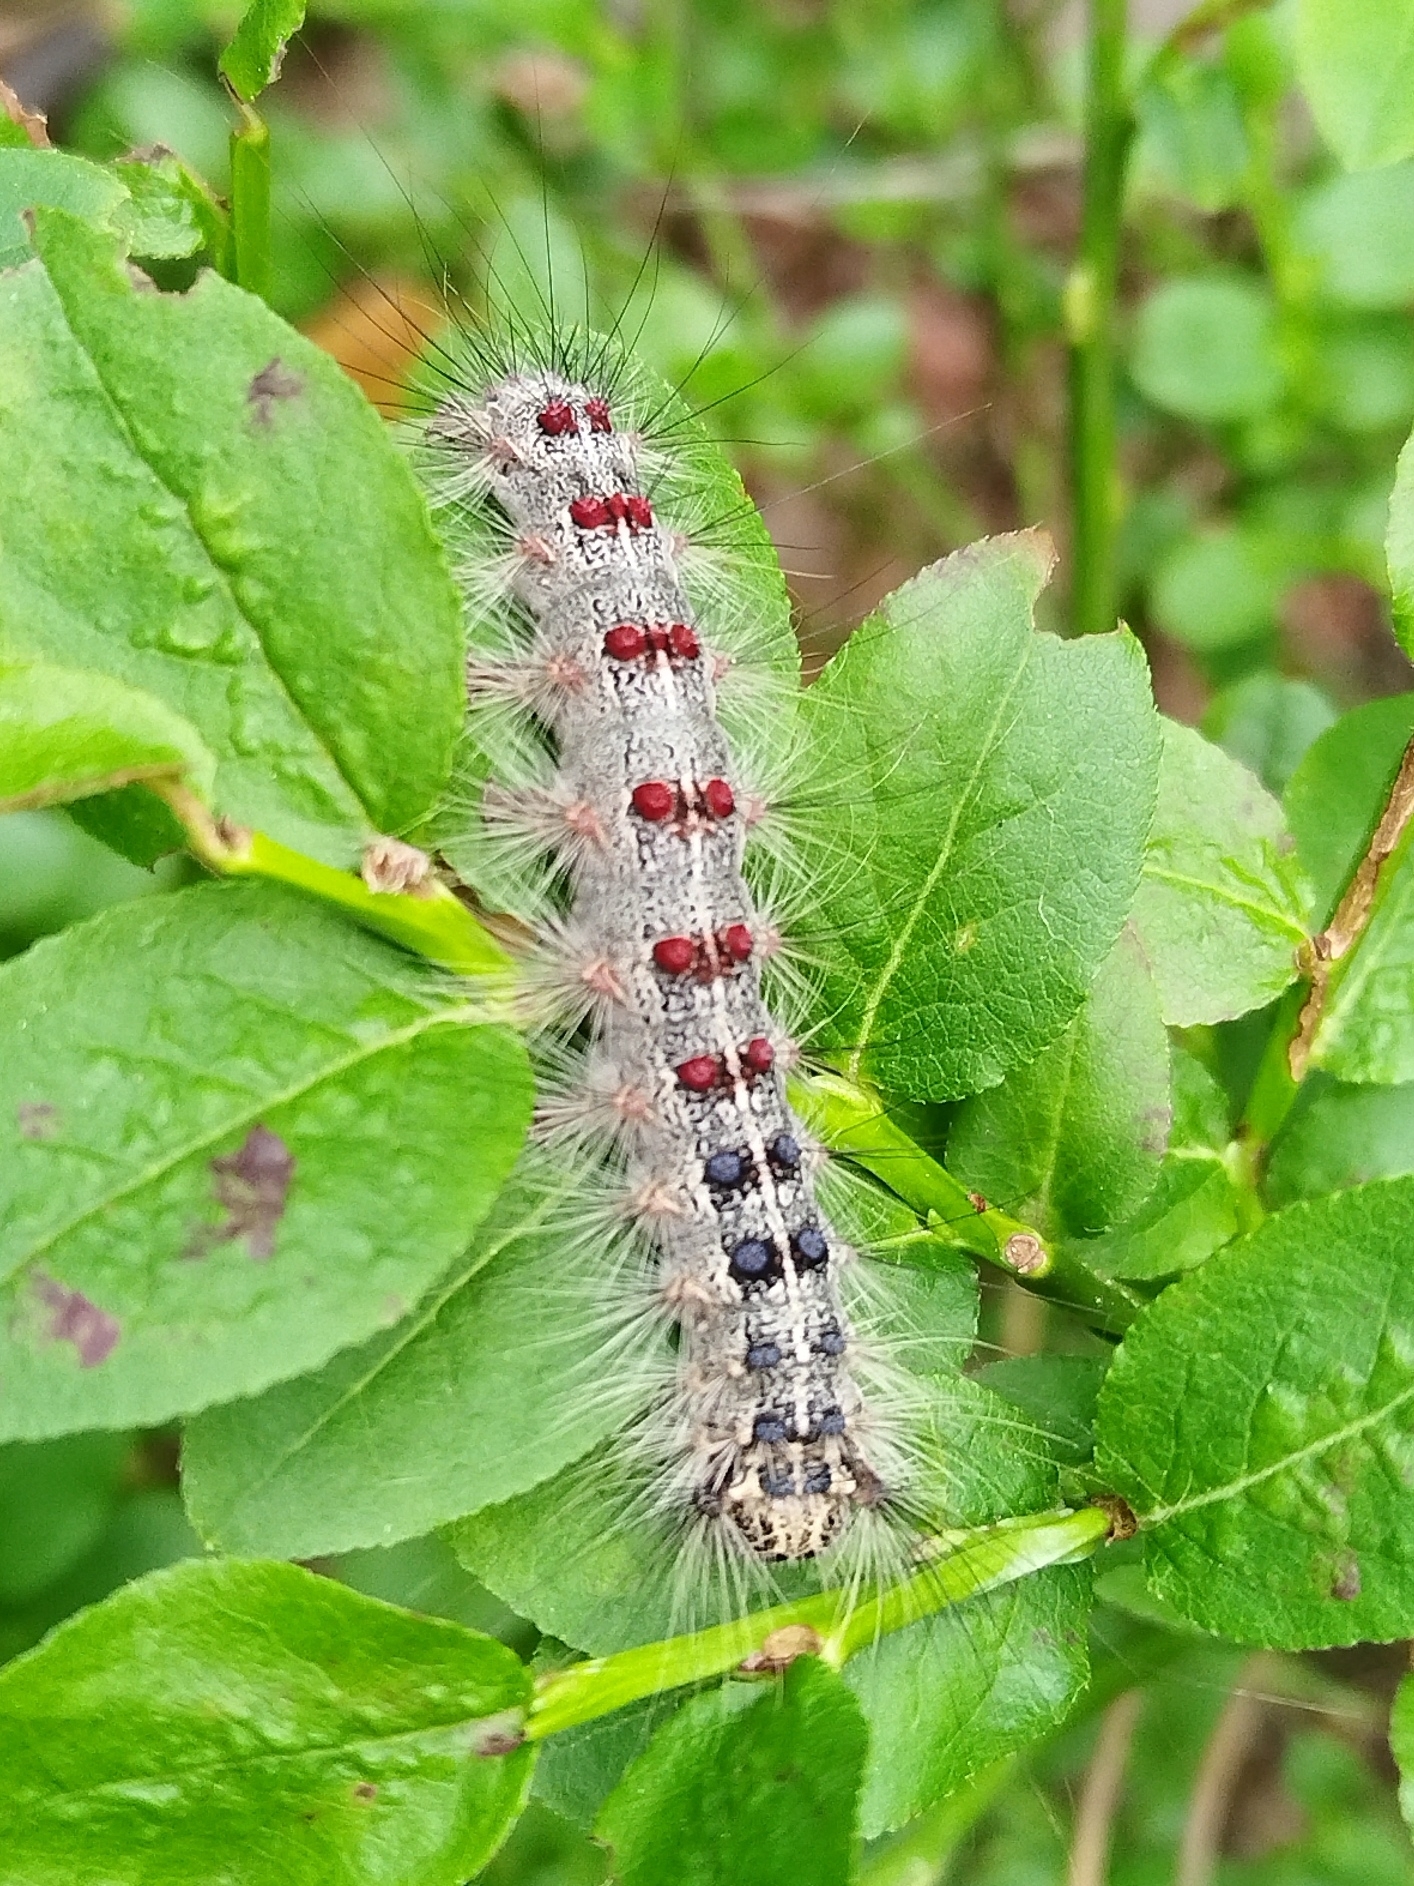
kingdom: Animalia
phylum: Arthropoda
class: Insecta
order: Lepidoptera
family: Erebidae
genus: Lymantria
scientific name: Lymantria dispar
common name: Gypsy moth
